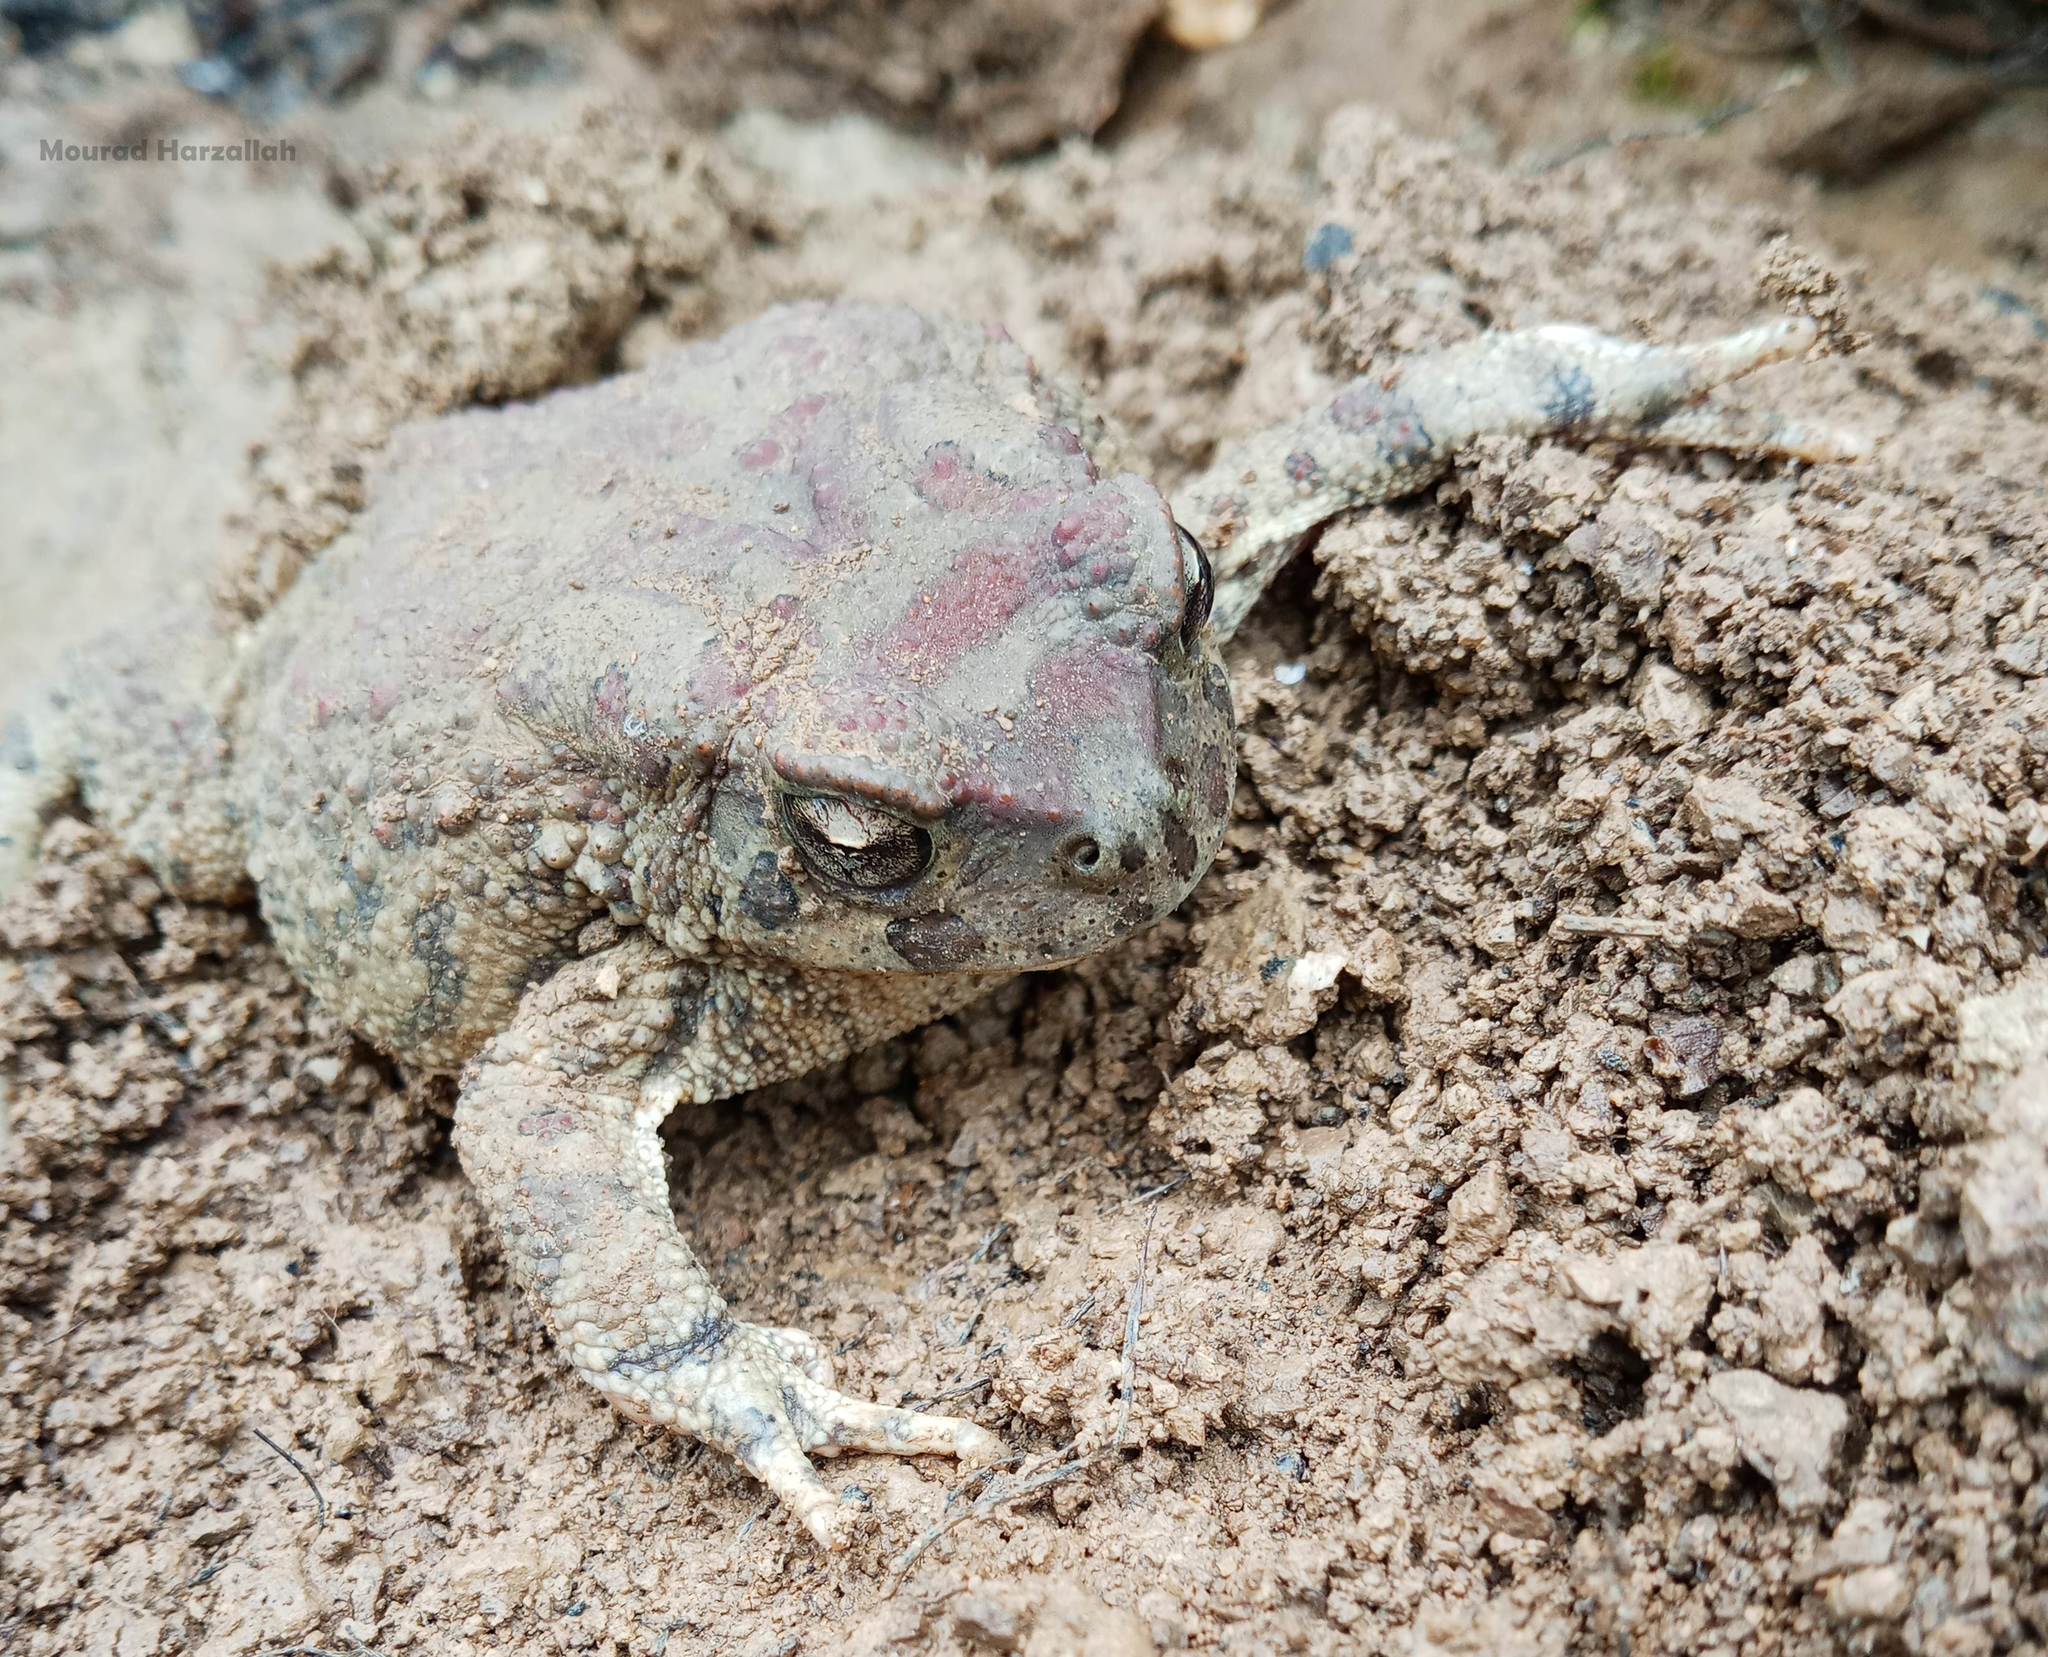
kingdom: Animalia
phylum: Chordata
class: Amphibia
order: Anura
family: Bufonidae
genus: Sclerophrys
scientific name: Sclerophrys mauritanica
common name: Berber toad
